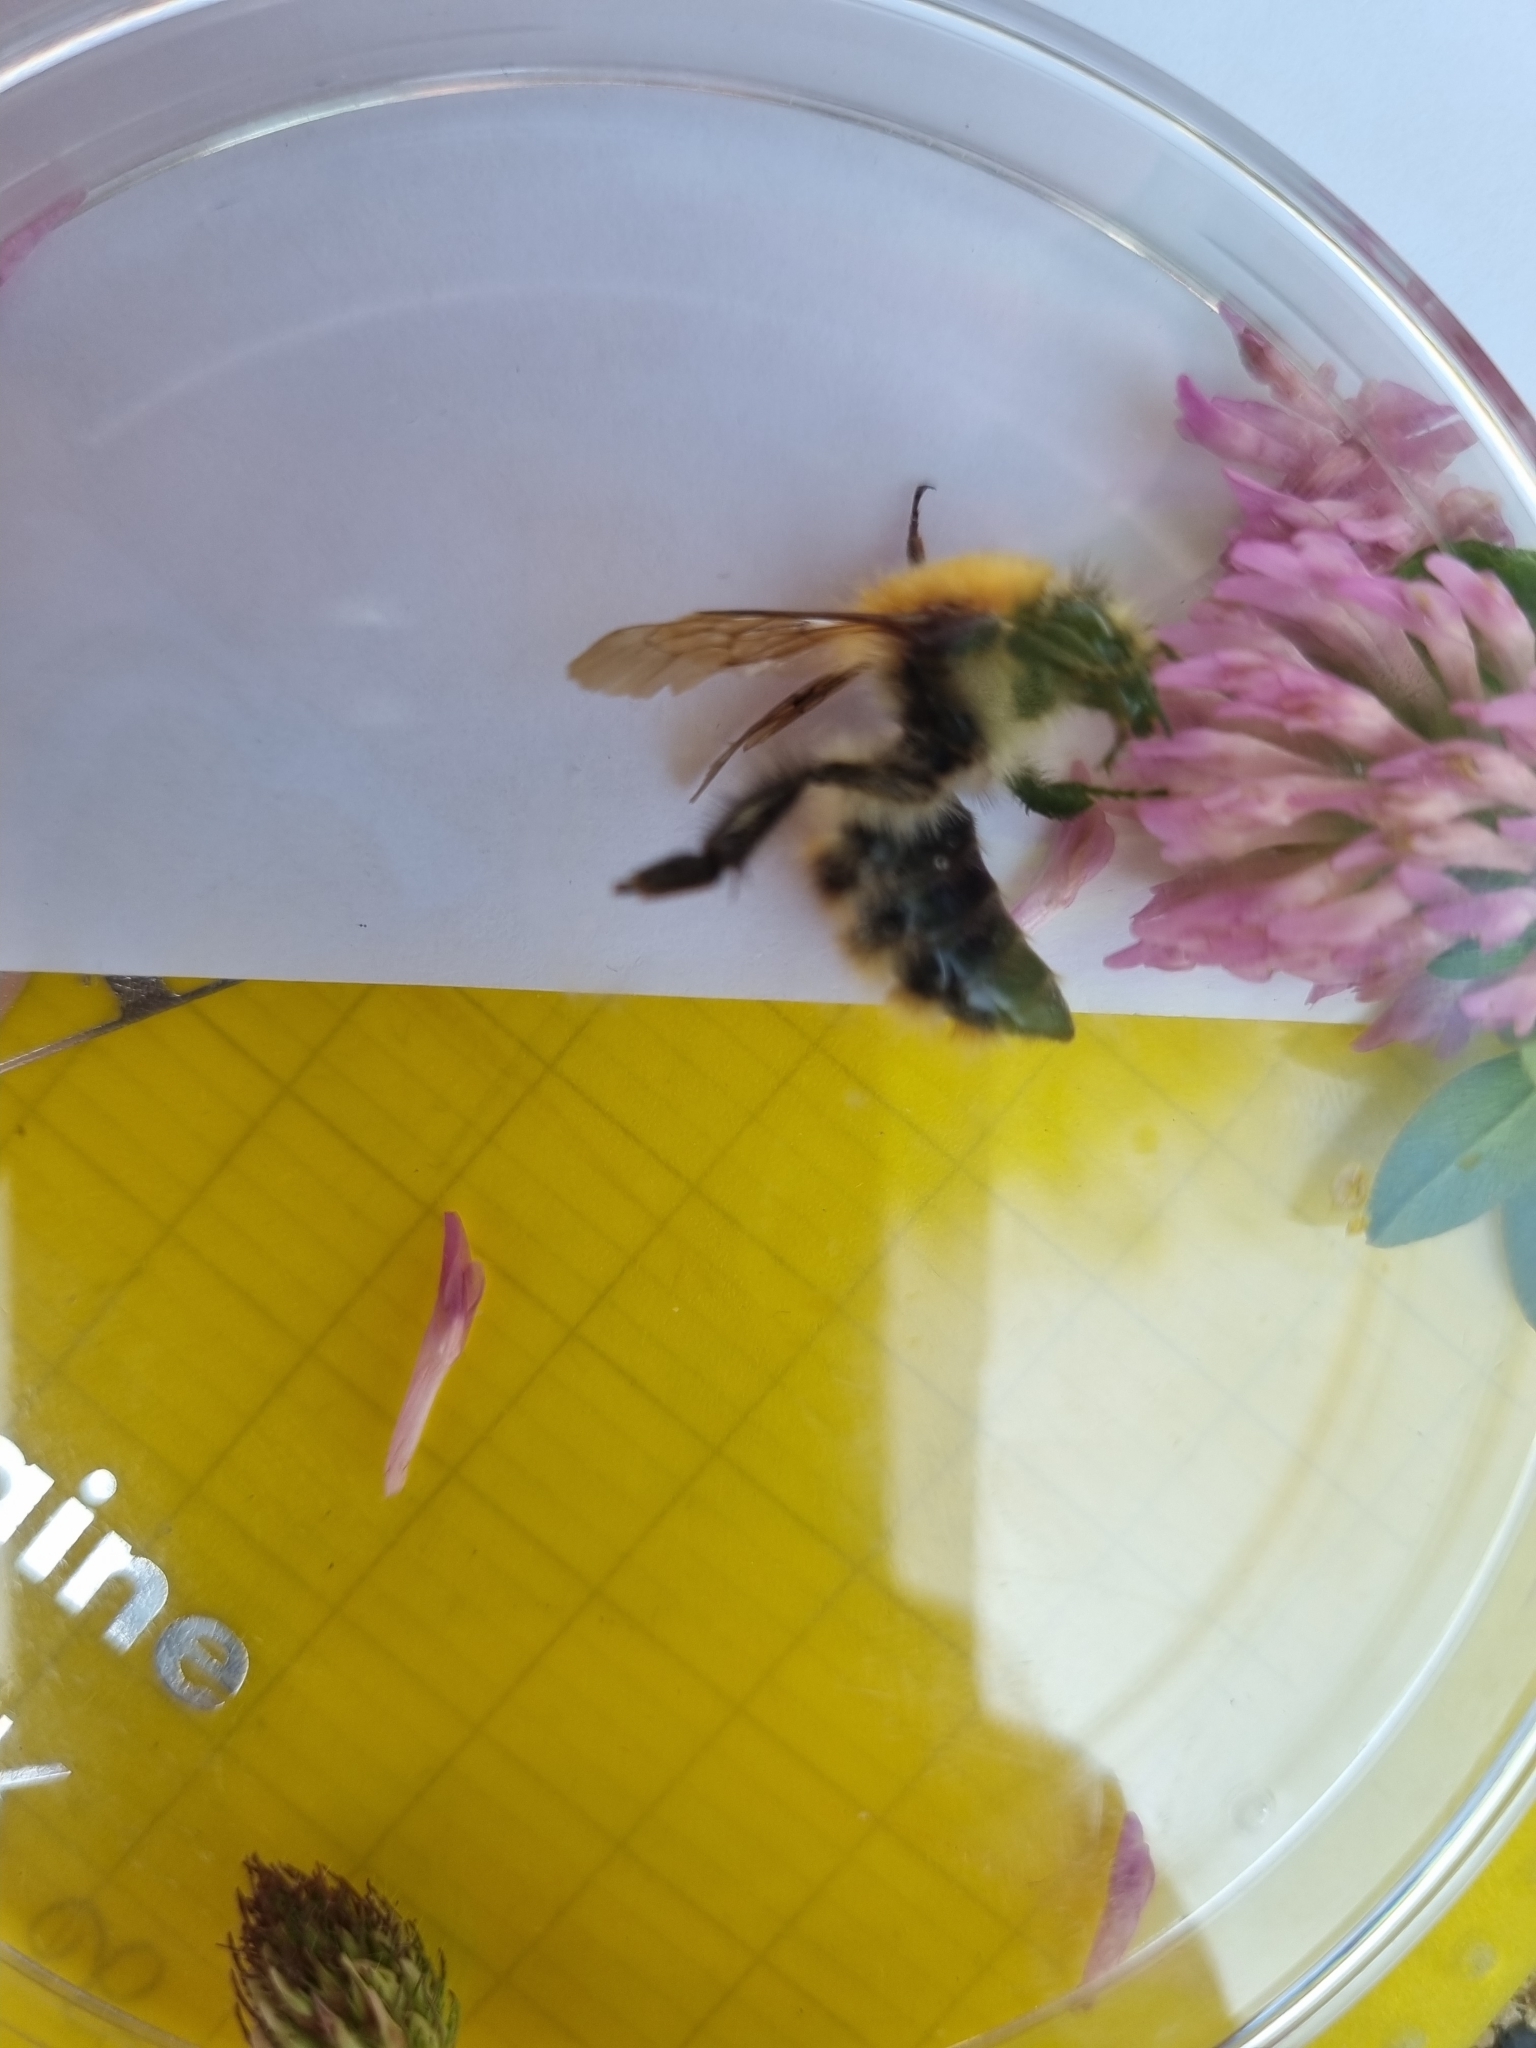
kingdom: Animalia
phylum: Arthropoda
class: Insecta
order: Hymenoptera
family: Apidae
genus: Bombus
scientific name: Bombus pascuorum
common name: Common carder bee
